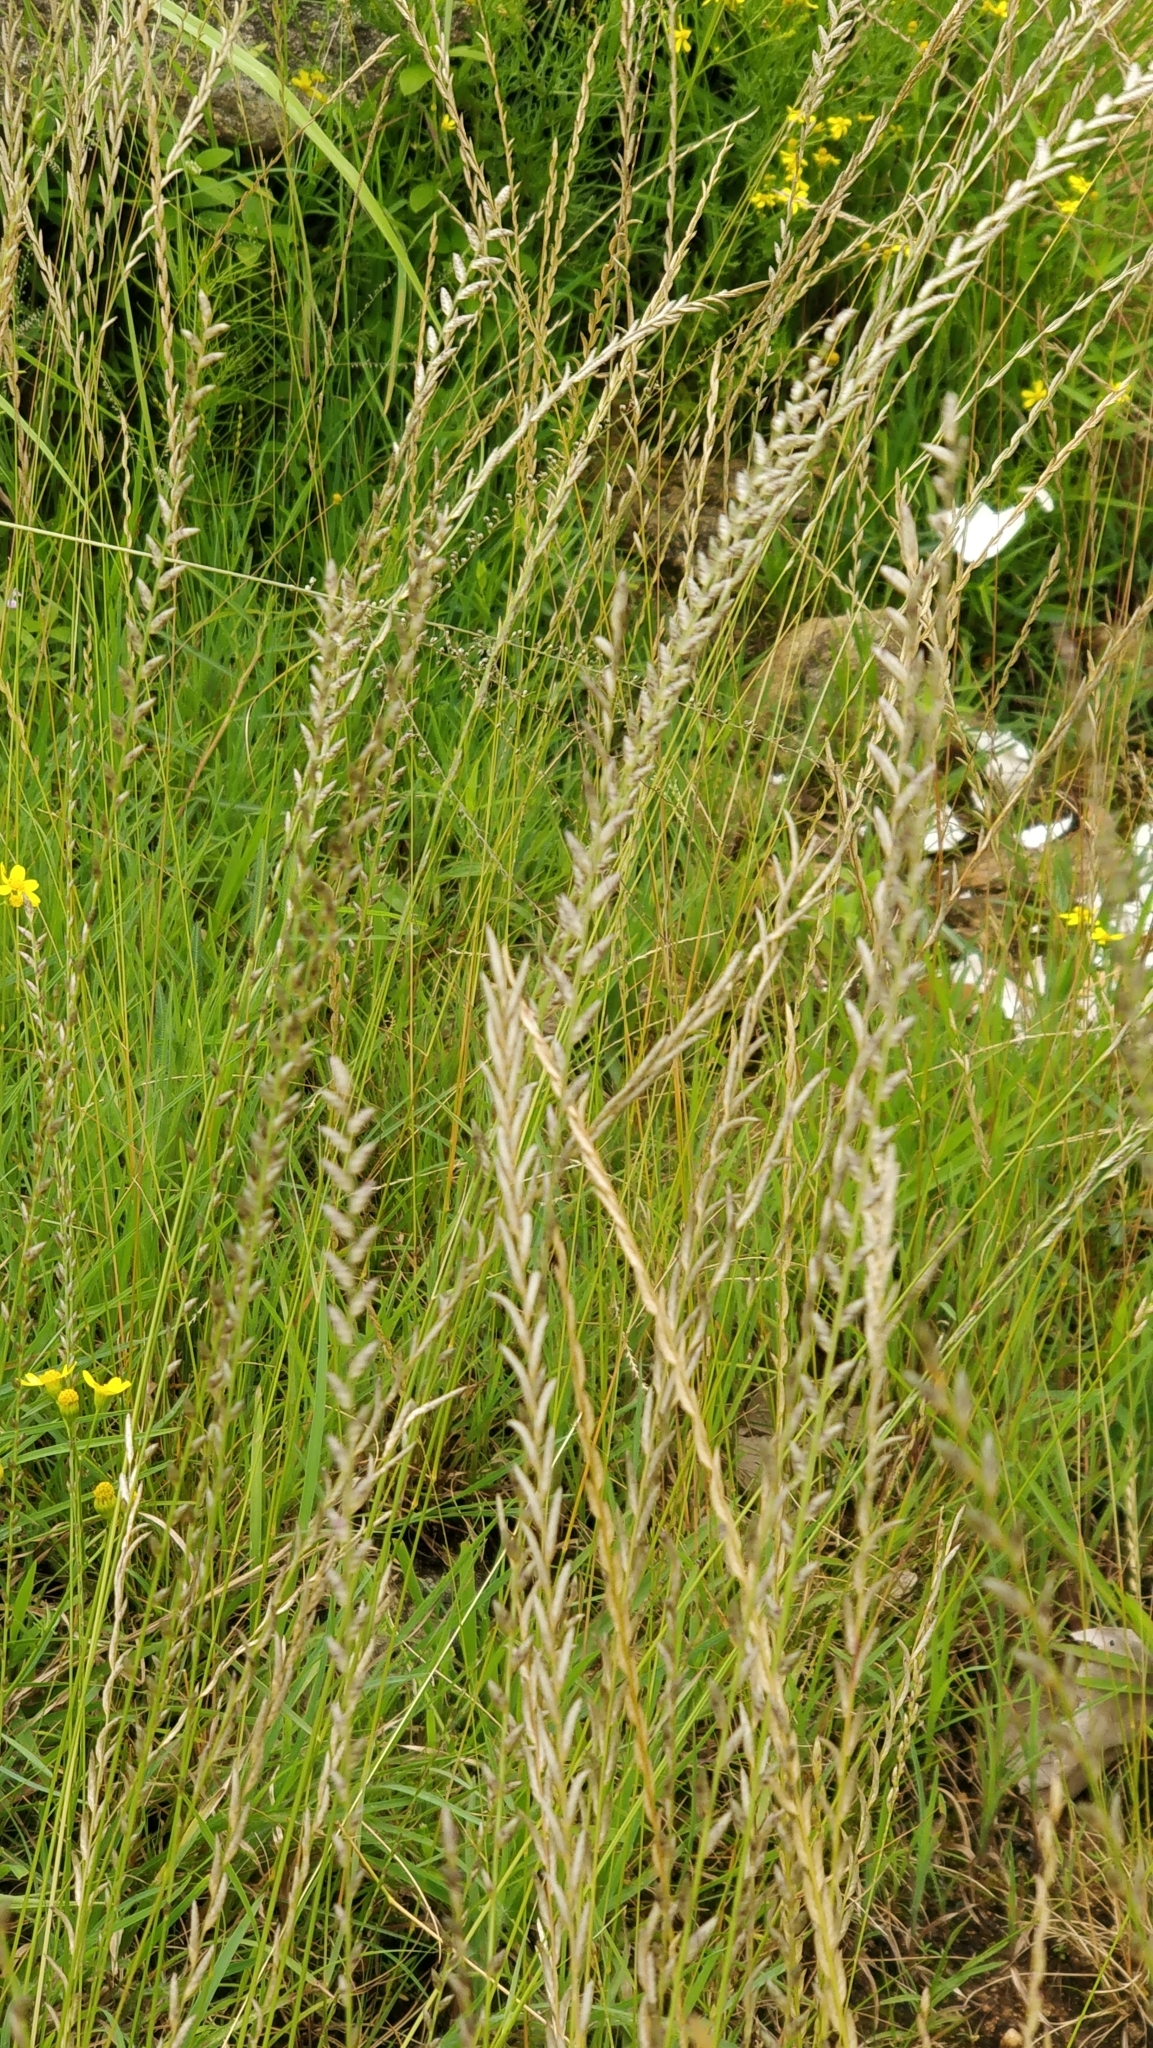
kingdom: Plantae
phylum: Tracheophyta
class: Liliopsida
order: Poales
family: Poaceae
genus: Eragrostiella
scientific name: Eragrostiella bifaria
